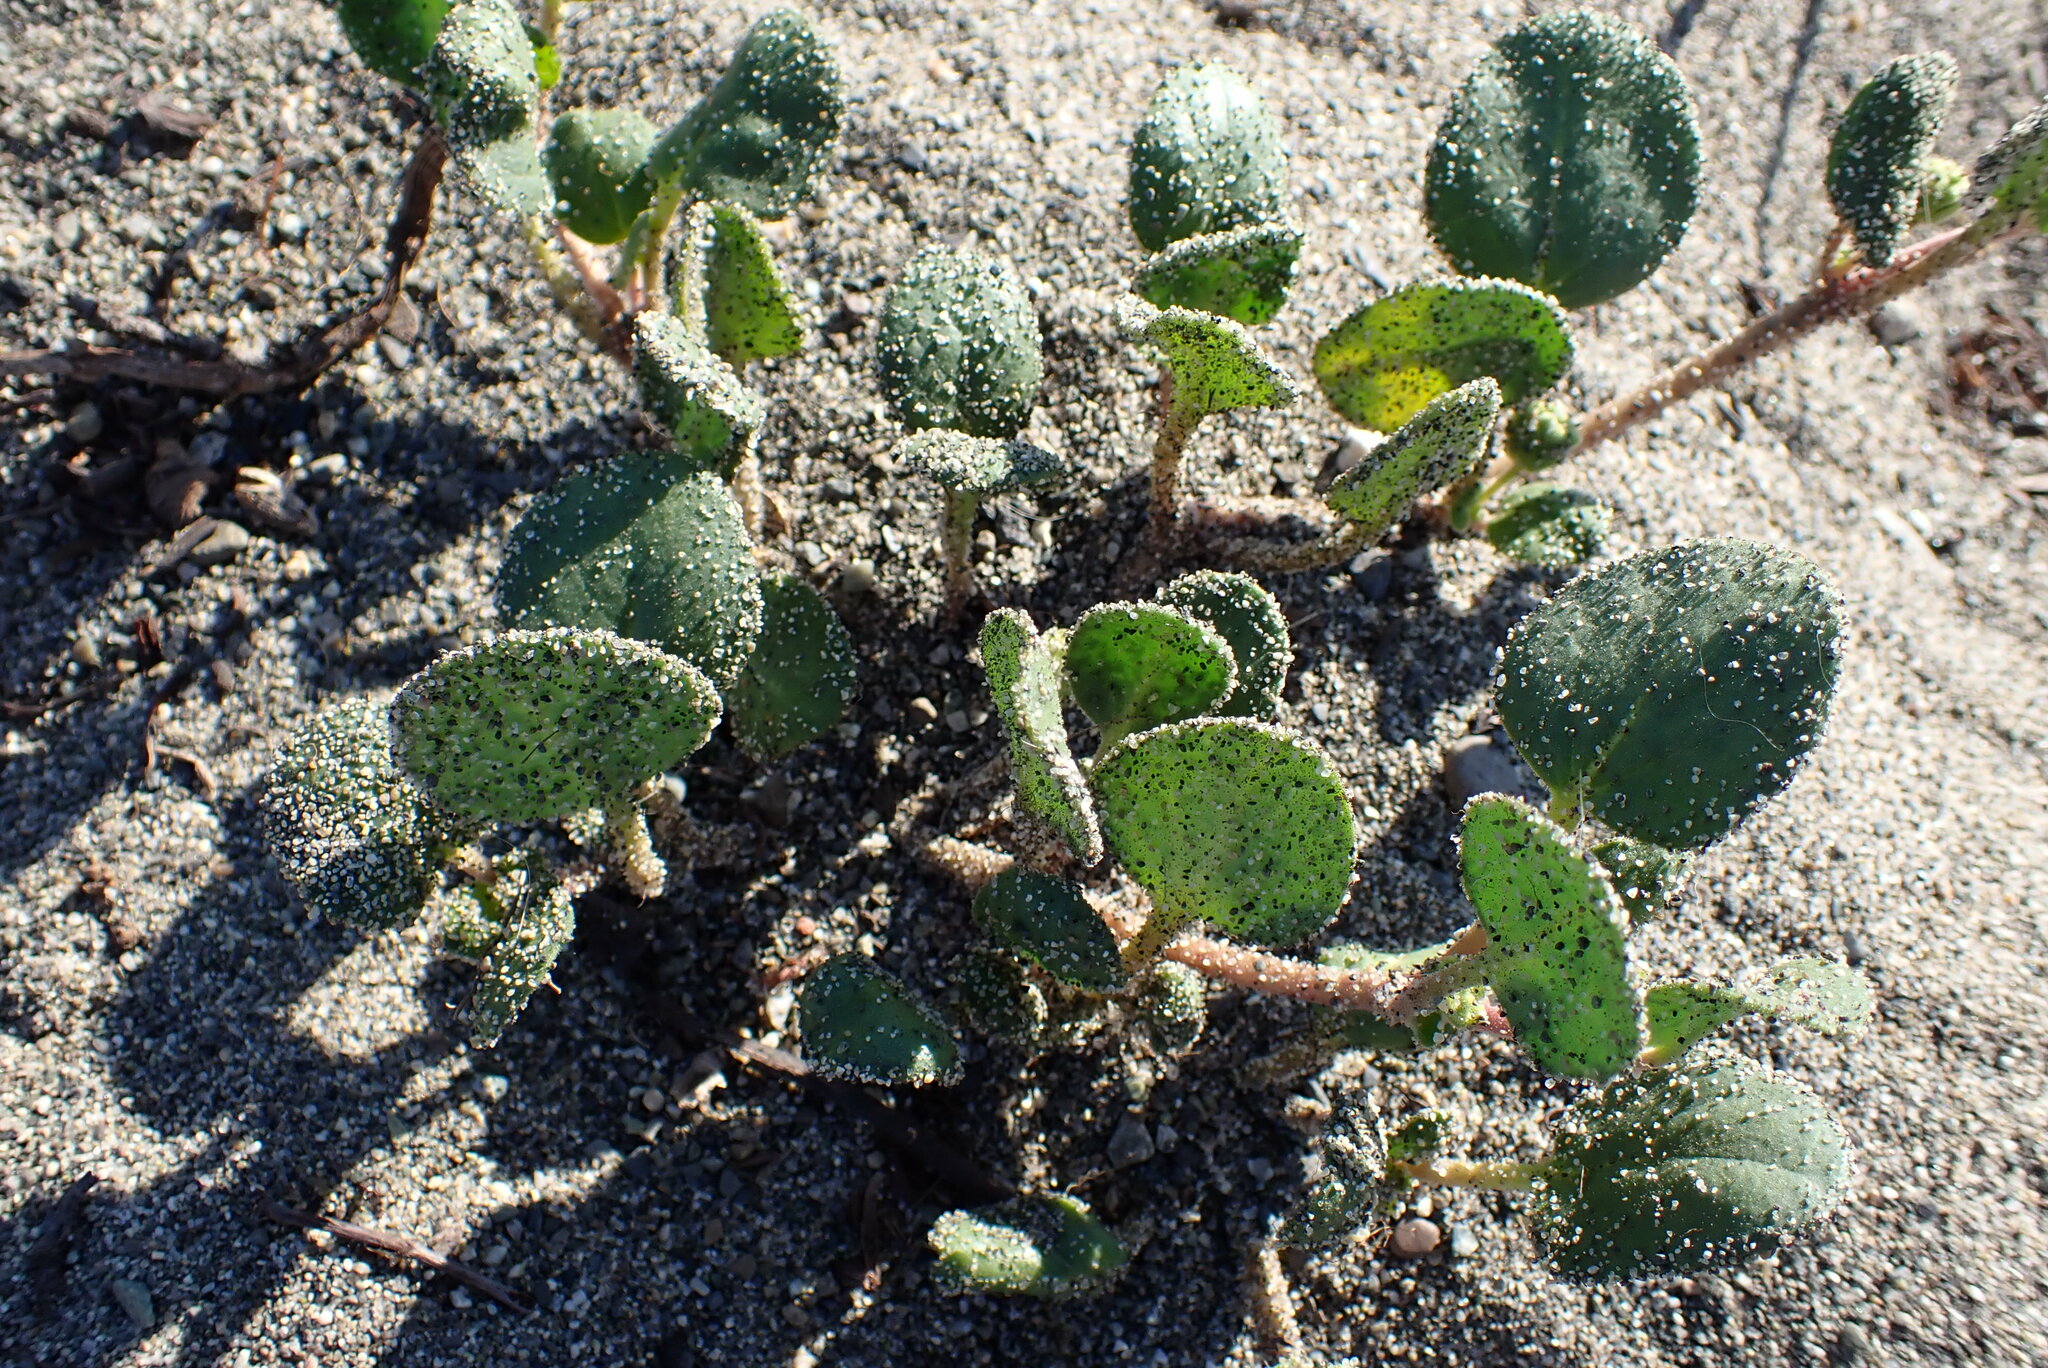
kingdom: Plantae
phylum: Tracheophyta
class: Magnoliopsida
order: Caryophyllales
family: Nyctaginaceae
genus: Abronia
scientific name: Abronia latifolia
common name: Yellow sand-verbena
